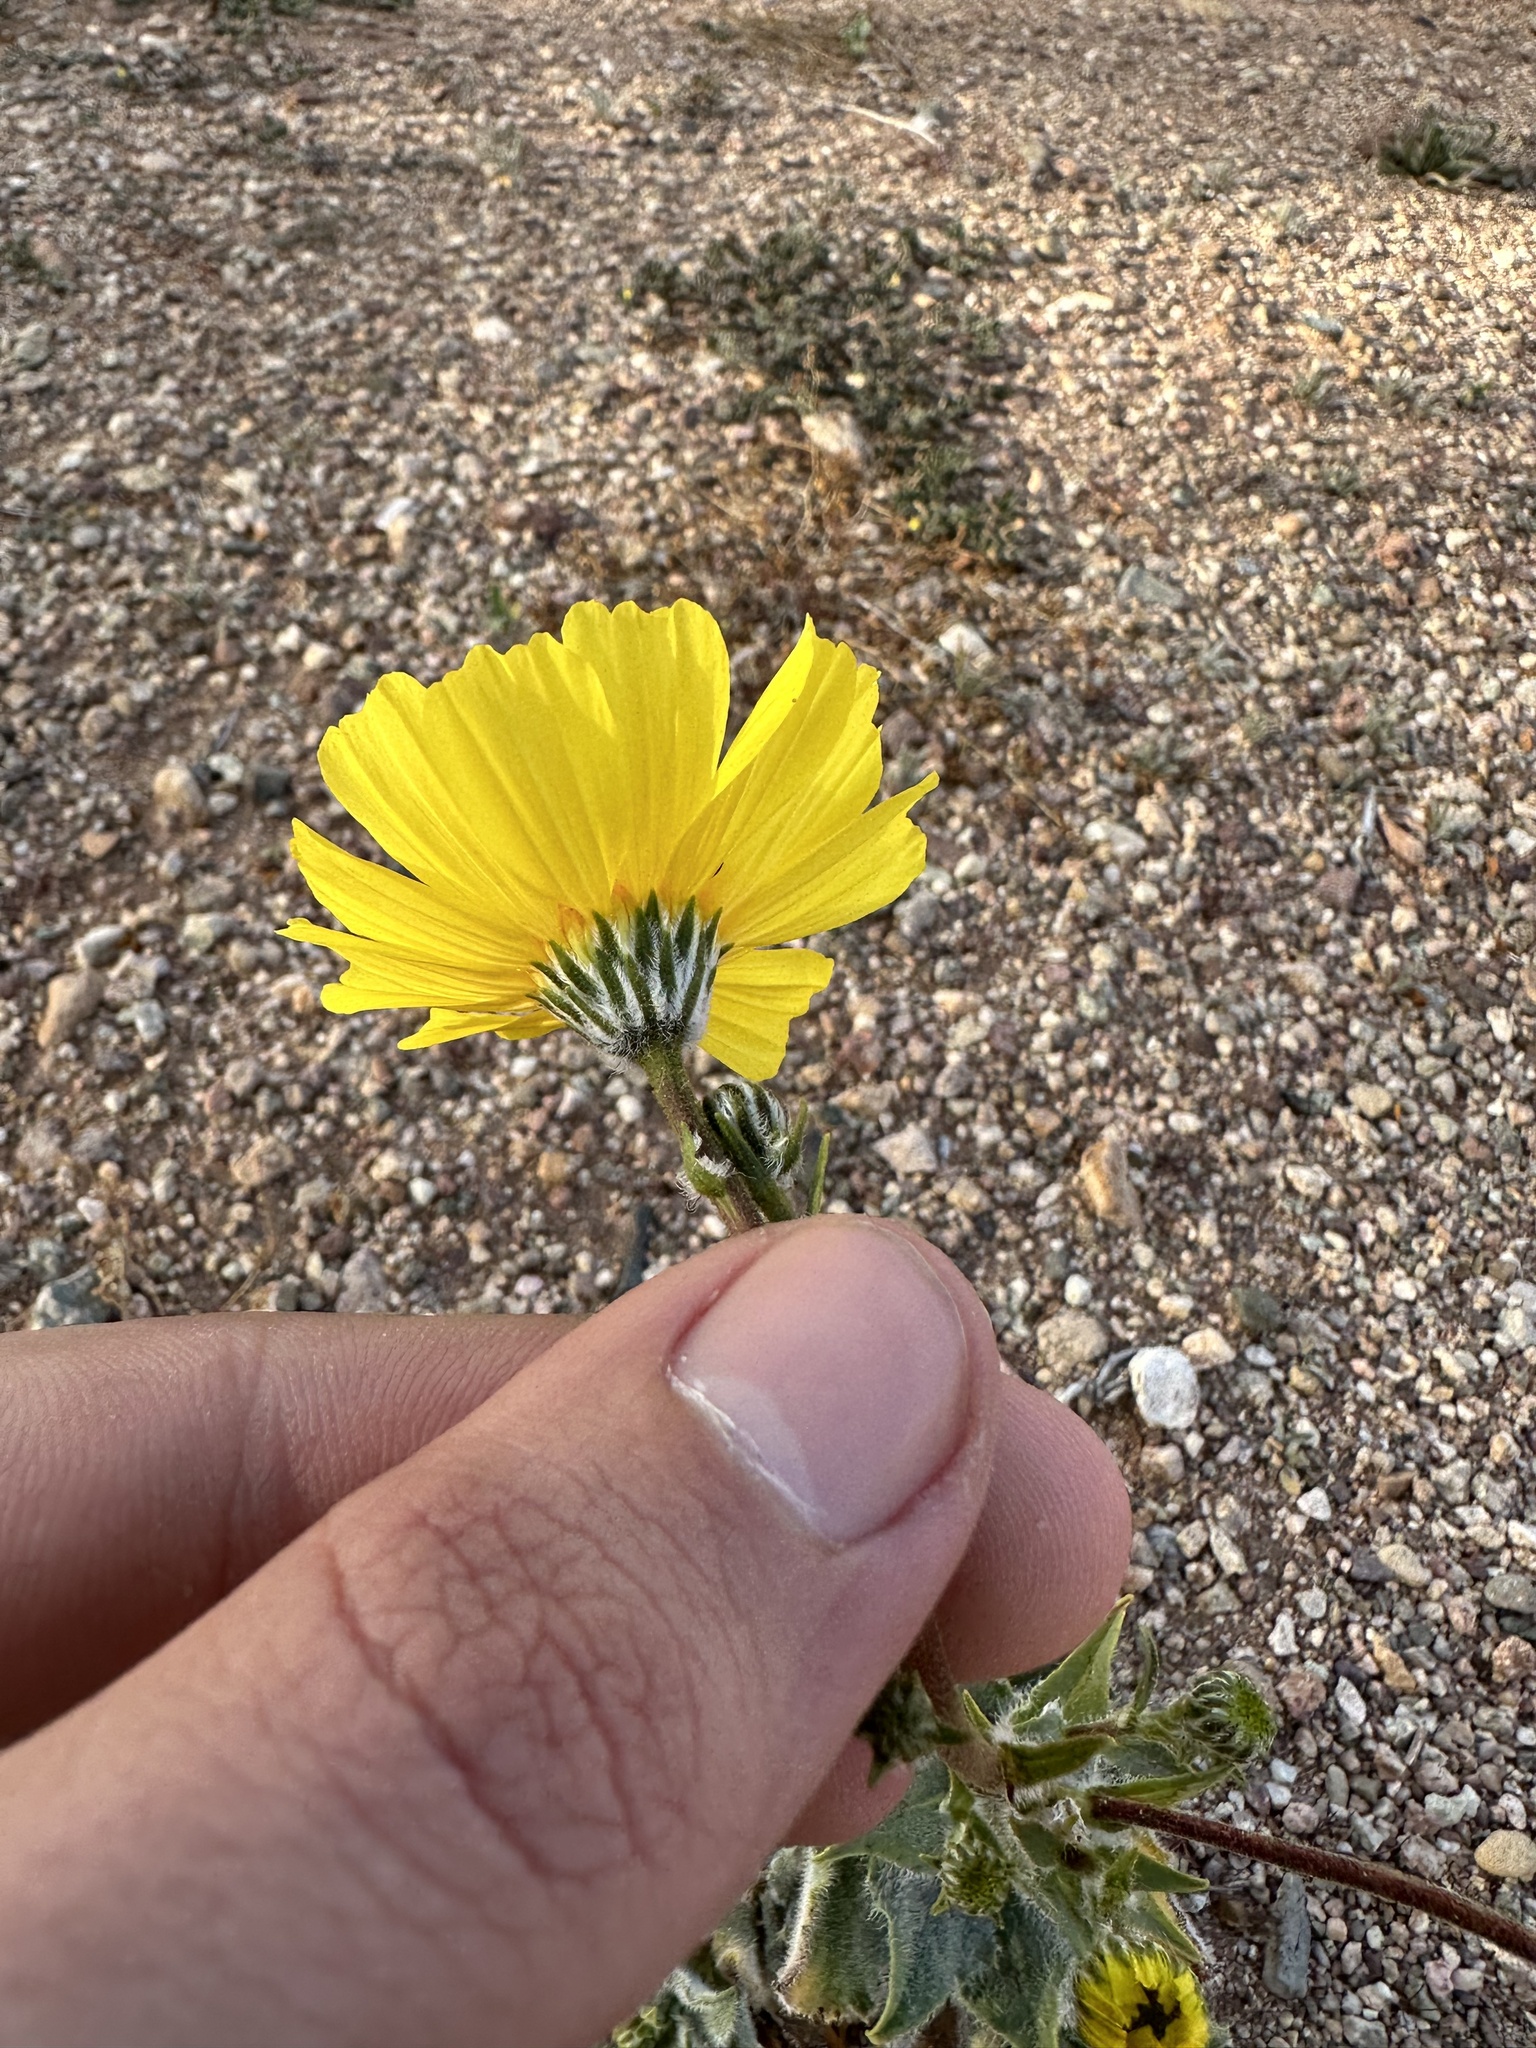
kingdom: Plantae
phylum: Tracheophyta
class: Magnoliopsida
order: Asterales
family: Asteraceae
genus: Geraea
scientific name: Geraea canescens
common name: Desert-gold
